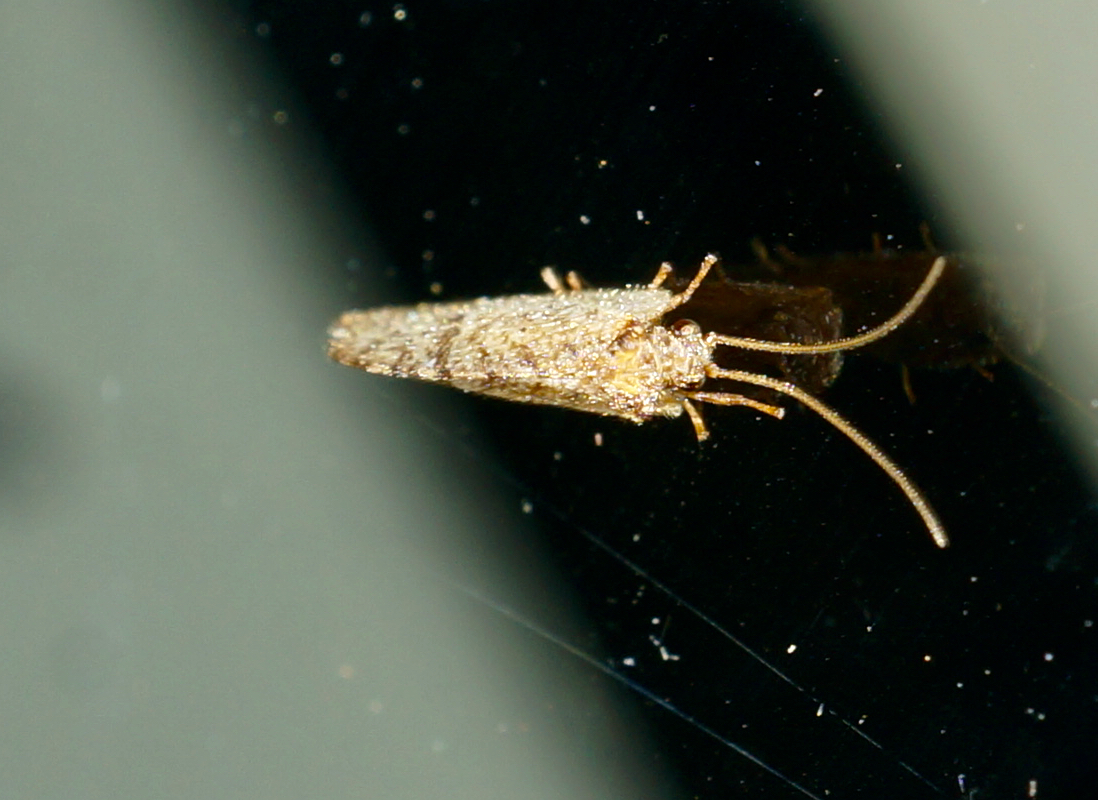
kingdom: Animalia
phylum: Arthropoda
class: Insecta
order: Neuroptera
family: Hemerobiidae
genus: Drepanacra
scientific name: Drepanacra binocula
